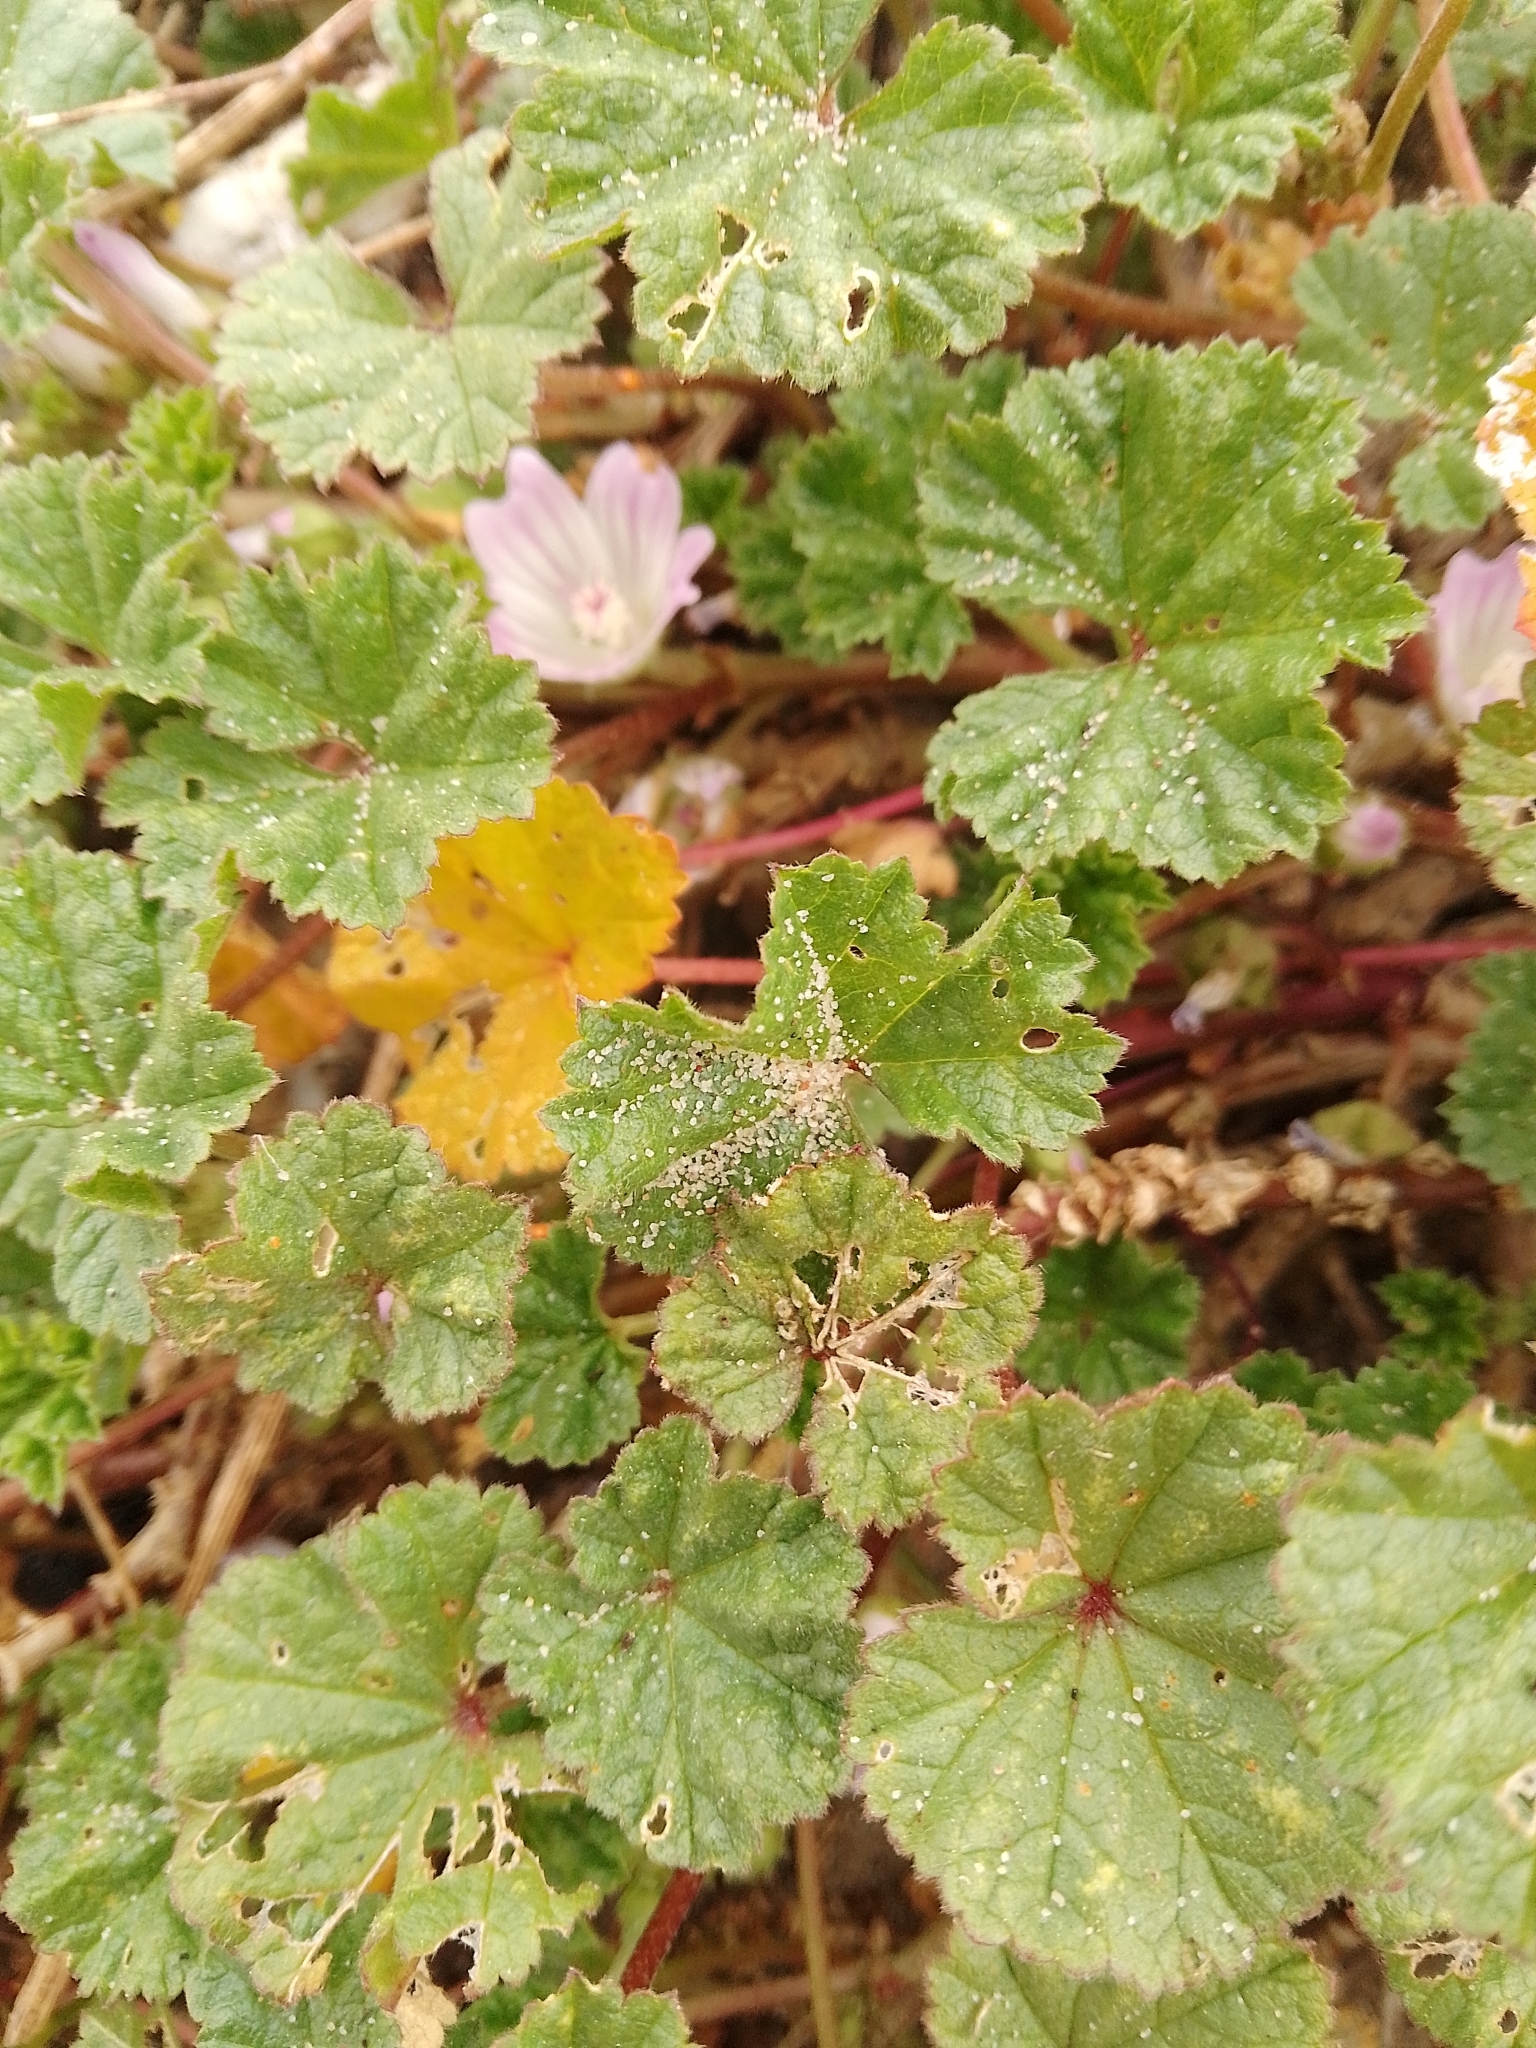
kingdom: Plantae
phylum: Tracheophyta
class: Magnoliopsida
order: Malvales
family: Malvaceae
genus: Malva
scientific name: Malva neglecta
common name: Common mallow
